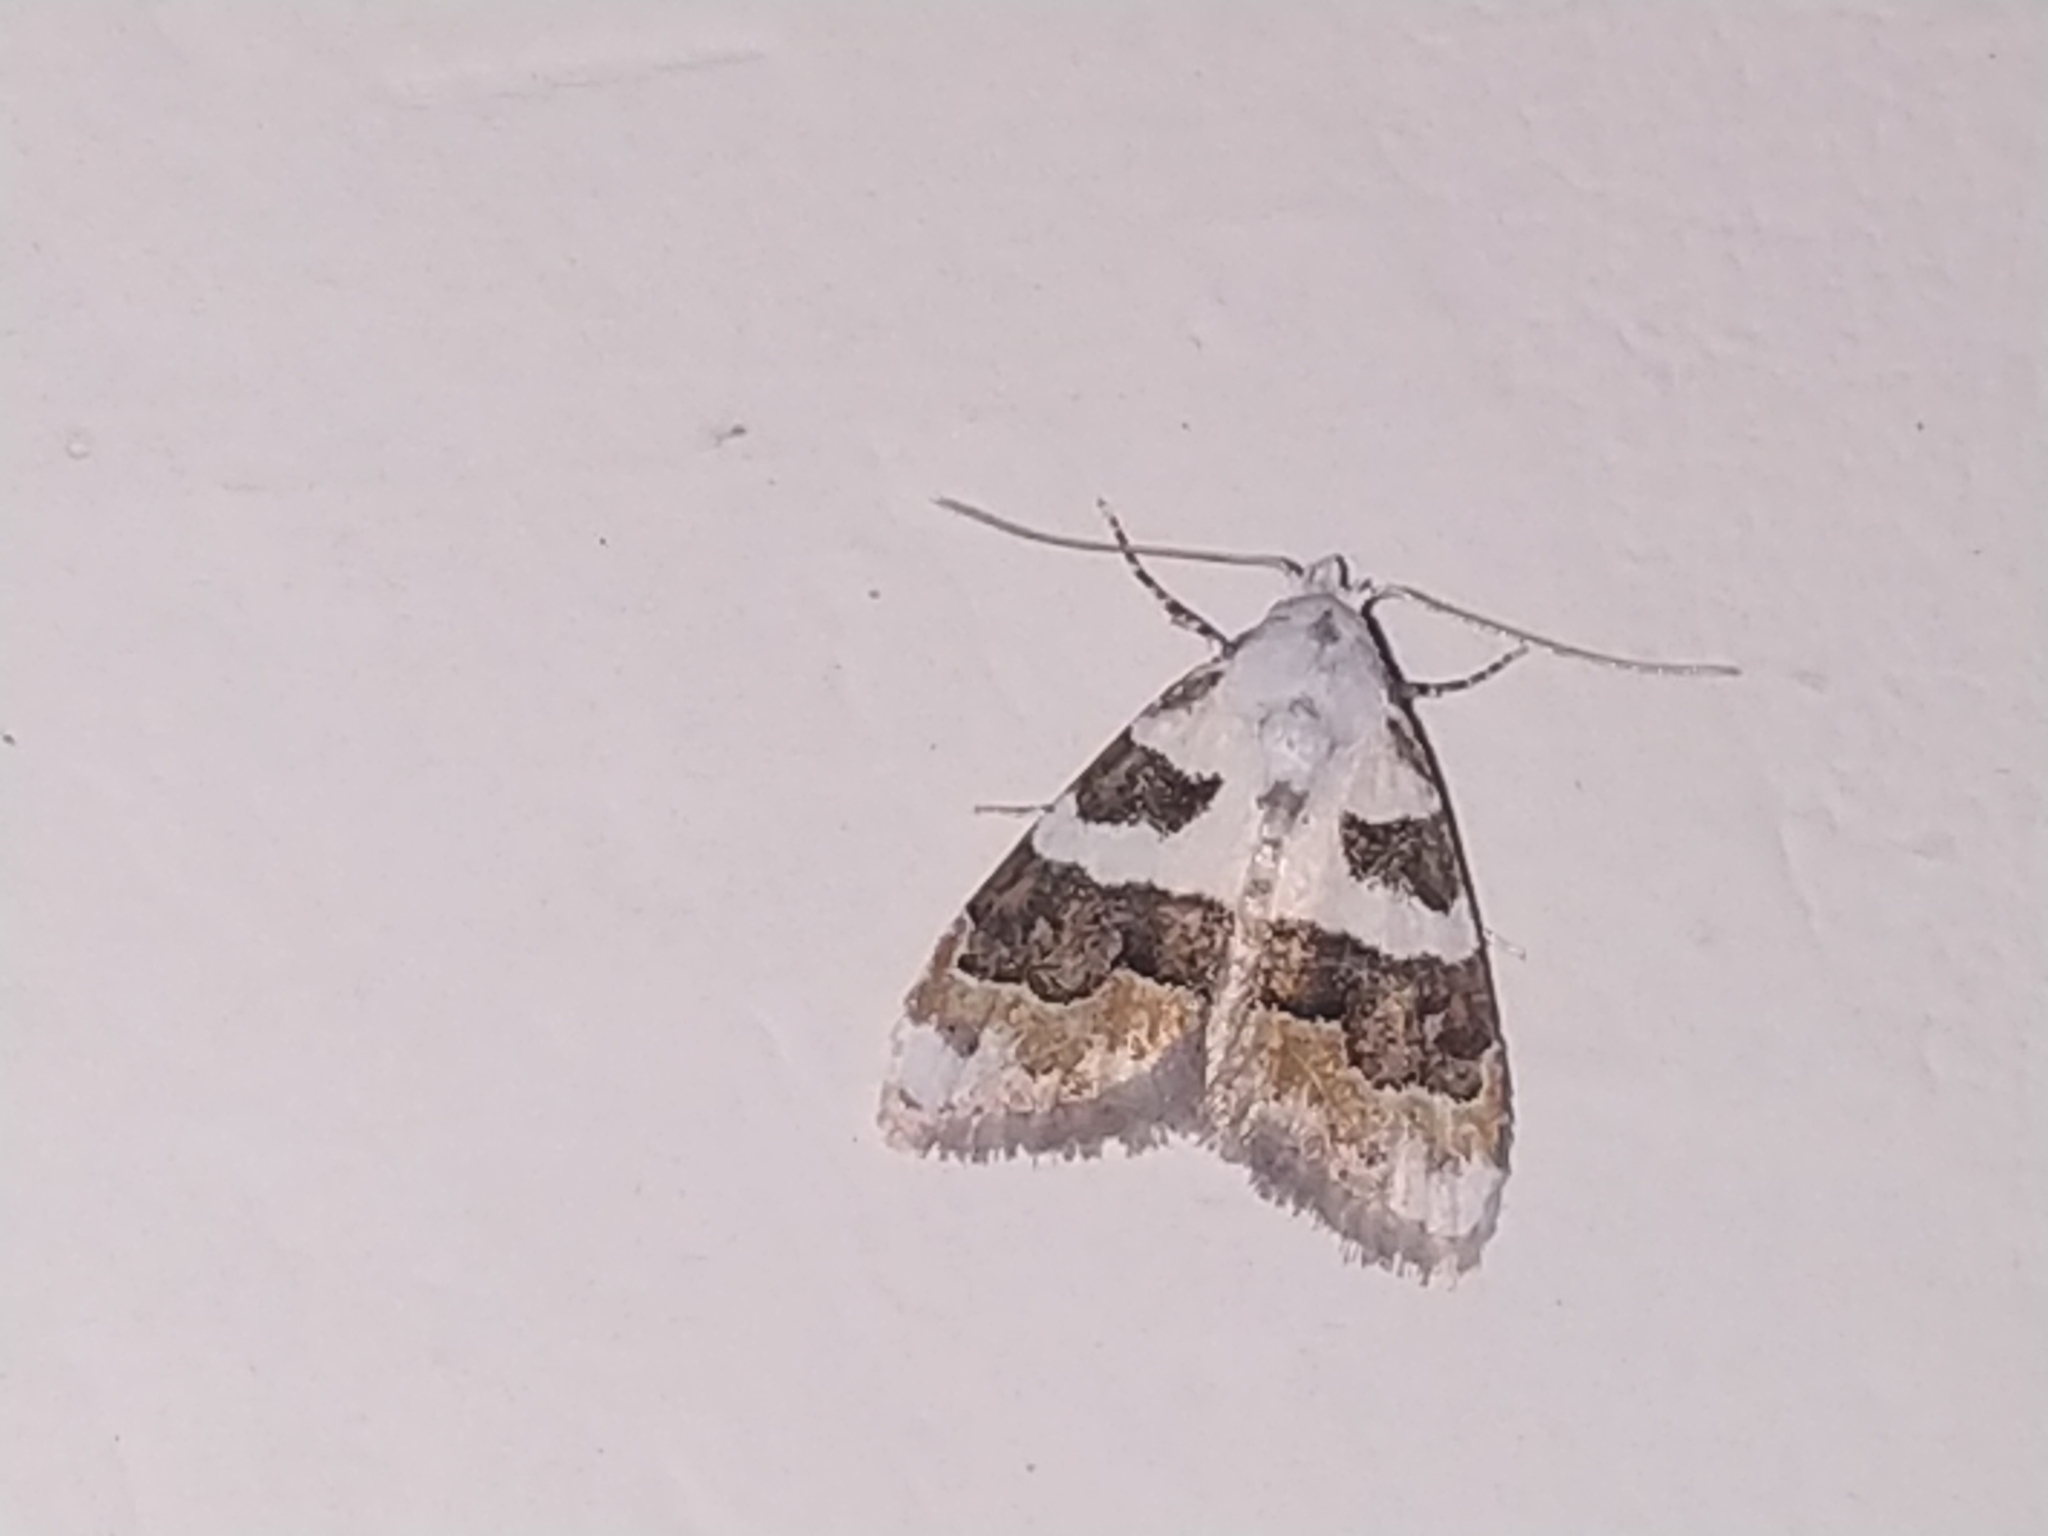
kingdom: Animalia
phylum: Arthropoda
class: Insecta
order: Lepidoptera
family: Nolidae
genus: Nola
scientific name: Nola lucidalis
